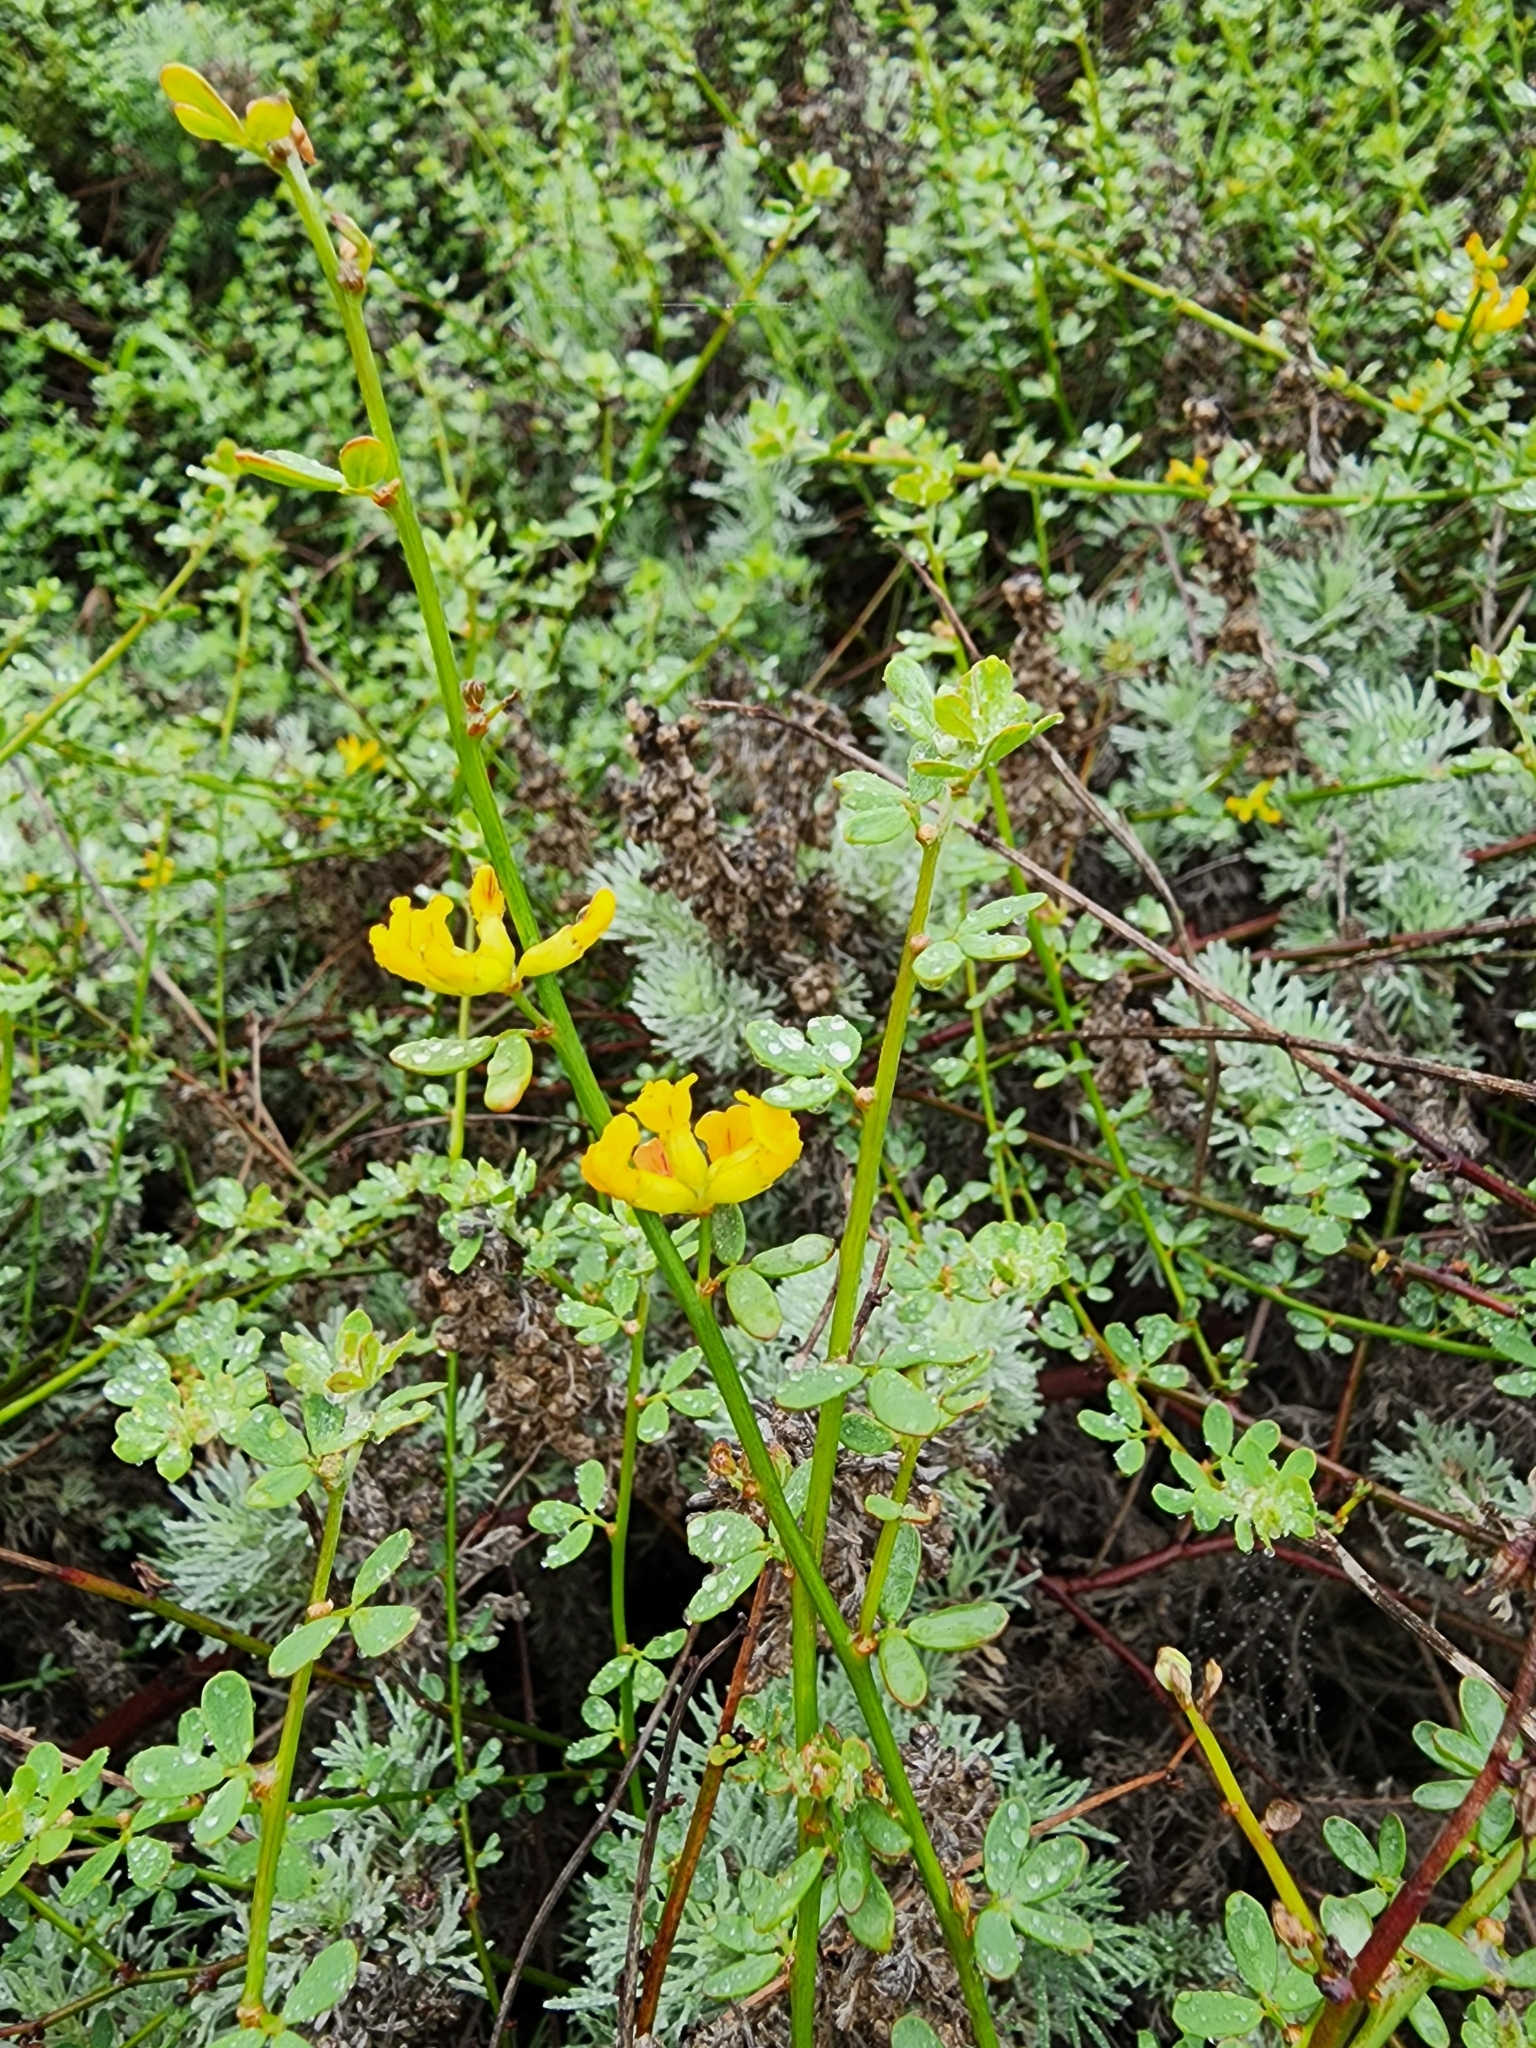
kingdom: Plantae
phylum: Tracheophyta
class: Magnoliopsida
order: Fabales
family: Fabaceae
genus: Acmispon
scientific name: Acmispon junceus
